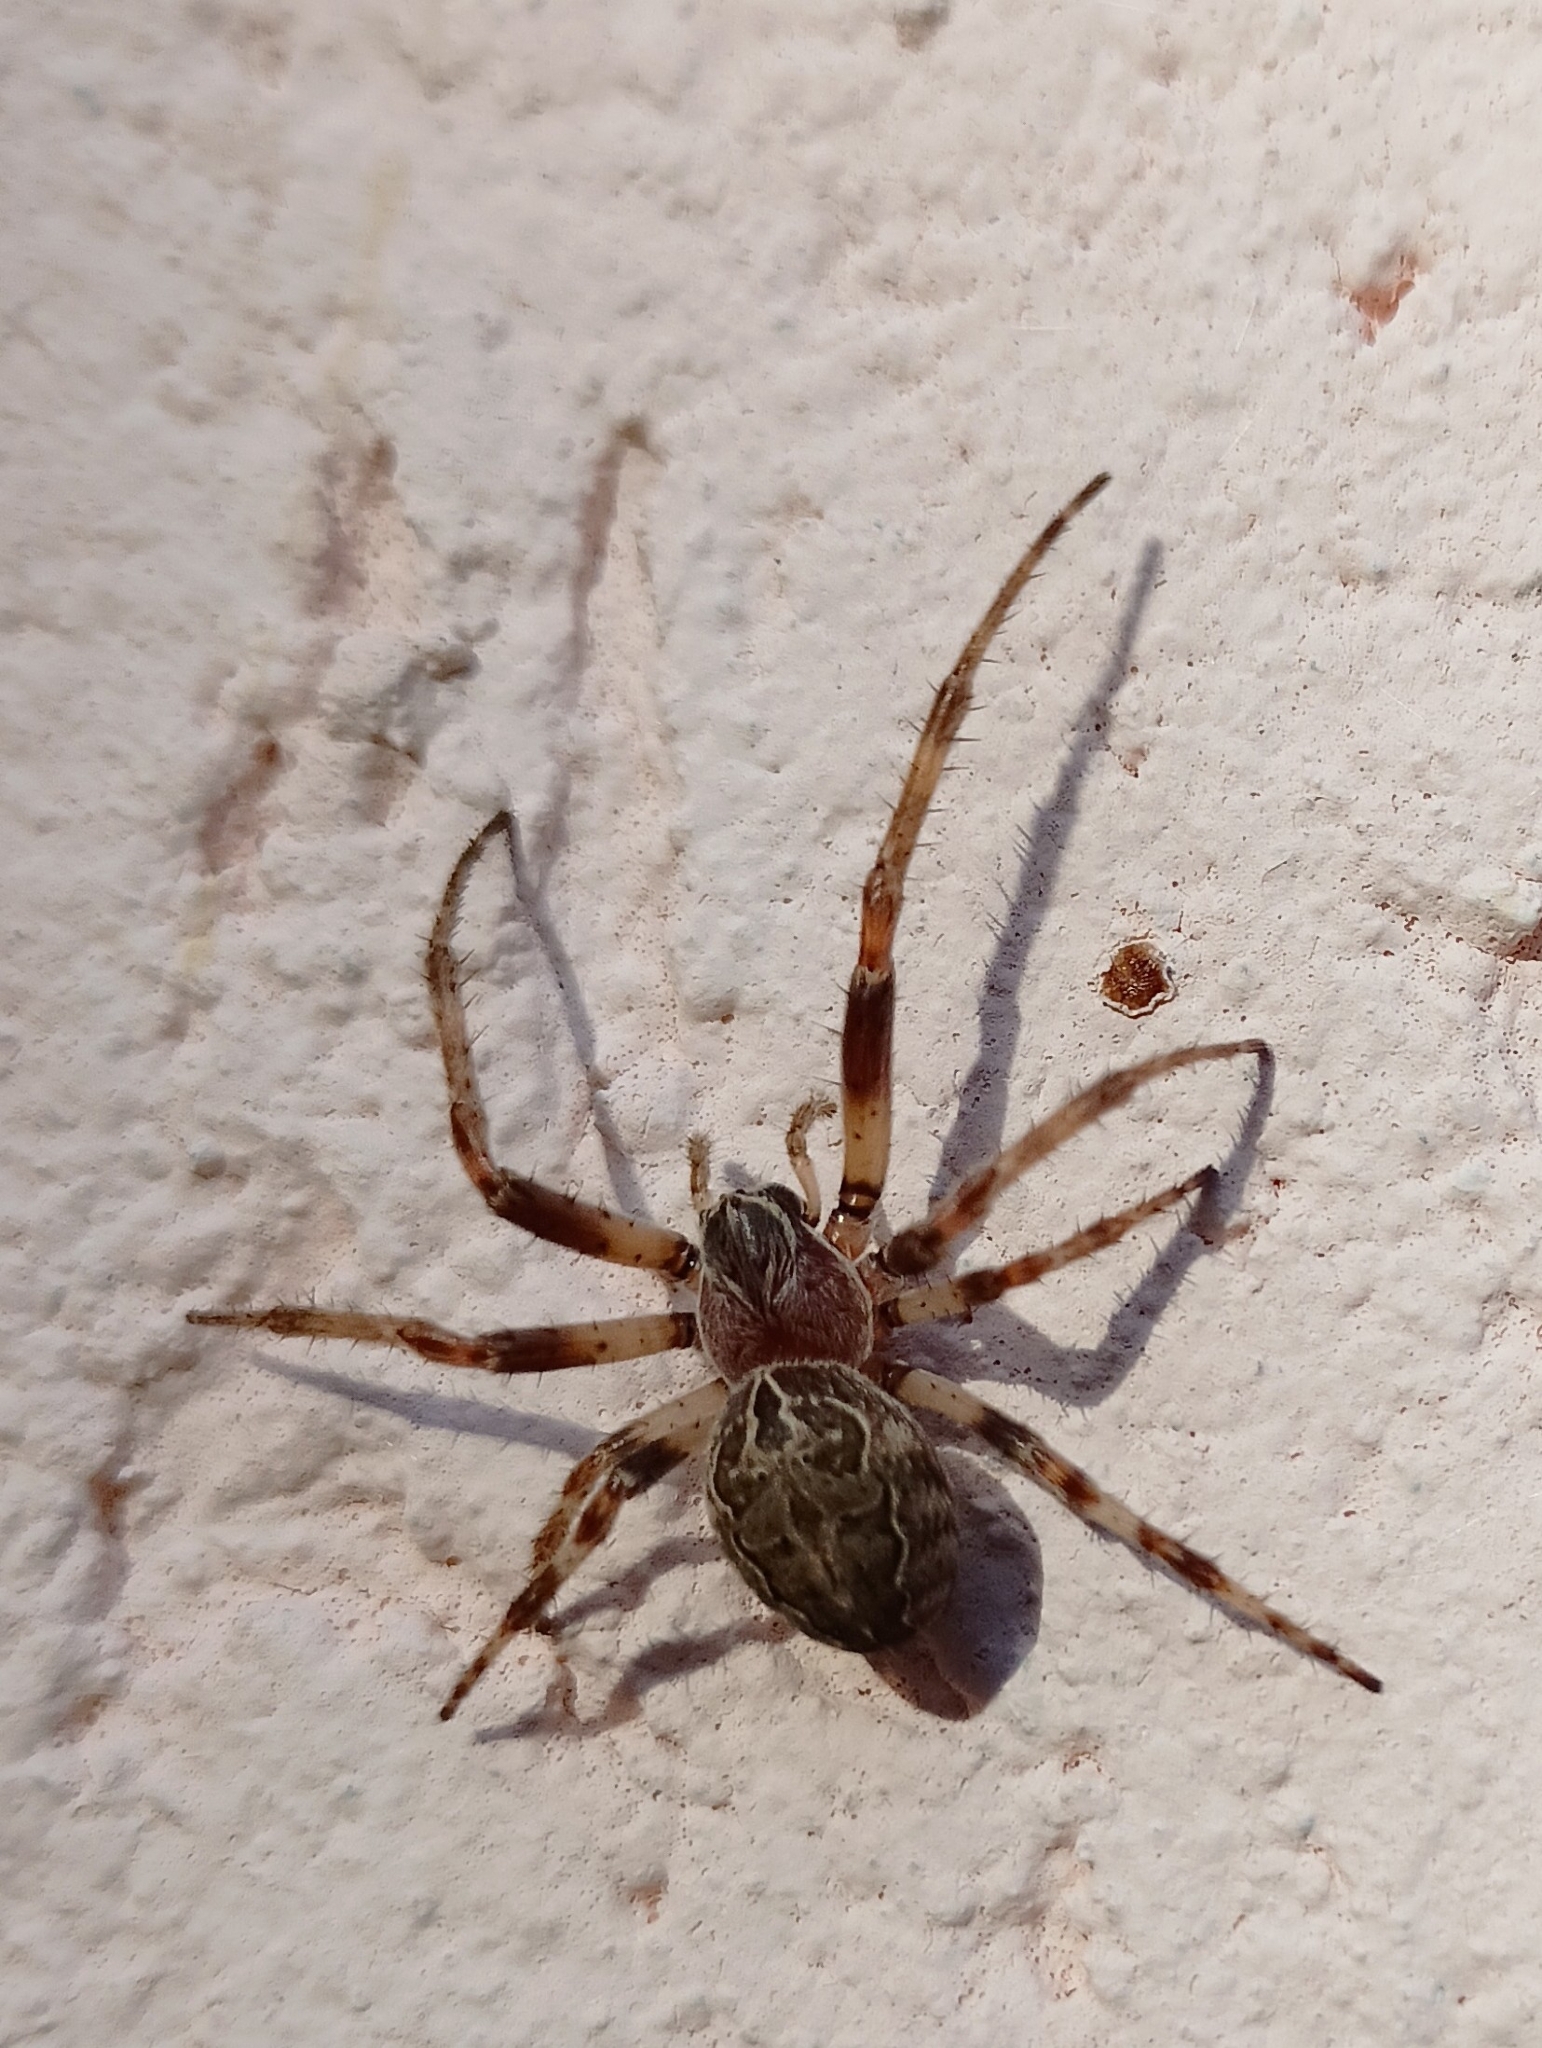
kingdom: Animalia
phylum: Arthropoda
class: Arachnida
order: Araneae
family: Araneidae
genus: Larinioides
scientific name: Larinioides sclopetarius
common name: Bridge orbweaver
